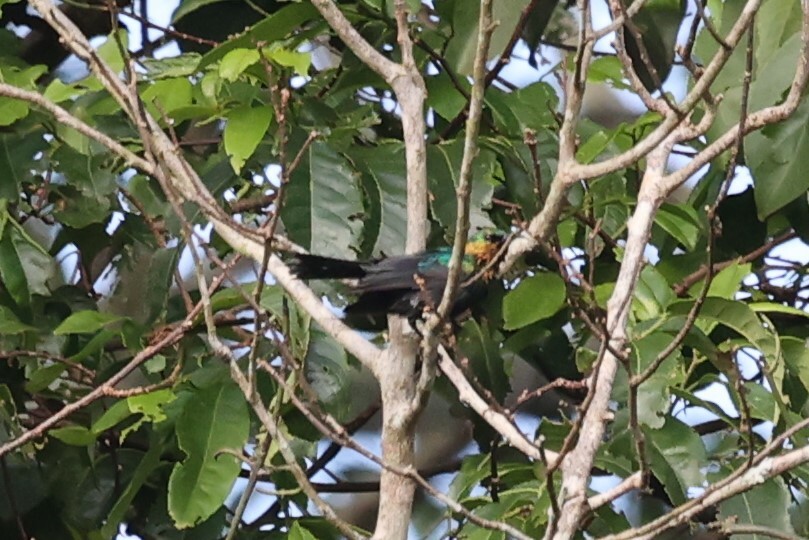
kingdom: Animalia
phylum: Chordata
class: Aves
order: Passeriformes
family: Nectariniidae
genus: Cinnyris
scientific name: Cinnyris cupreus
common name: Copper sunbird
